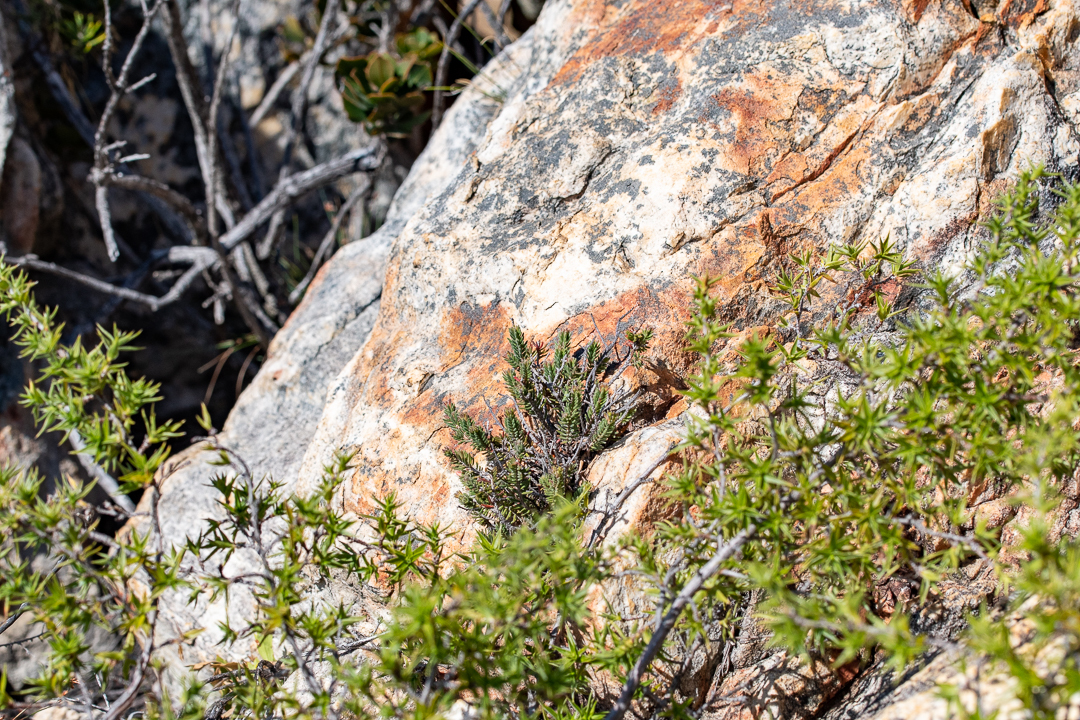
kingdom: Plantae
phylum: Tracheophyta
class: Magnoliopsida
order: Ericales
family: Ericaceae
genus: Erica
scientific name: Erica amidae
